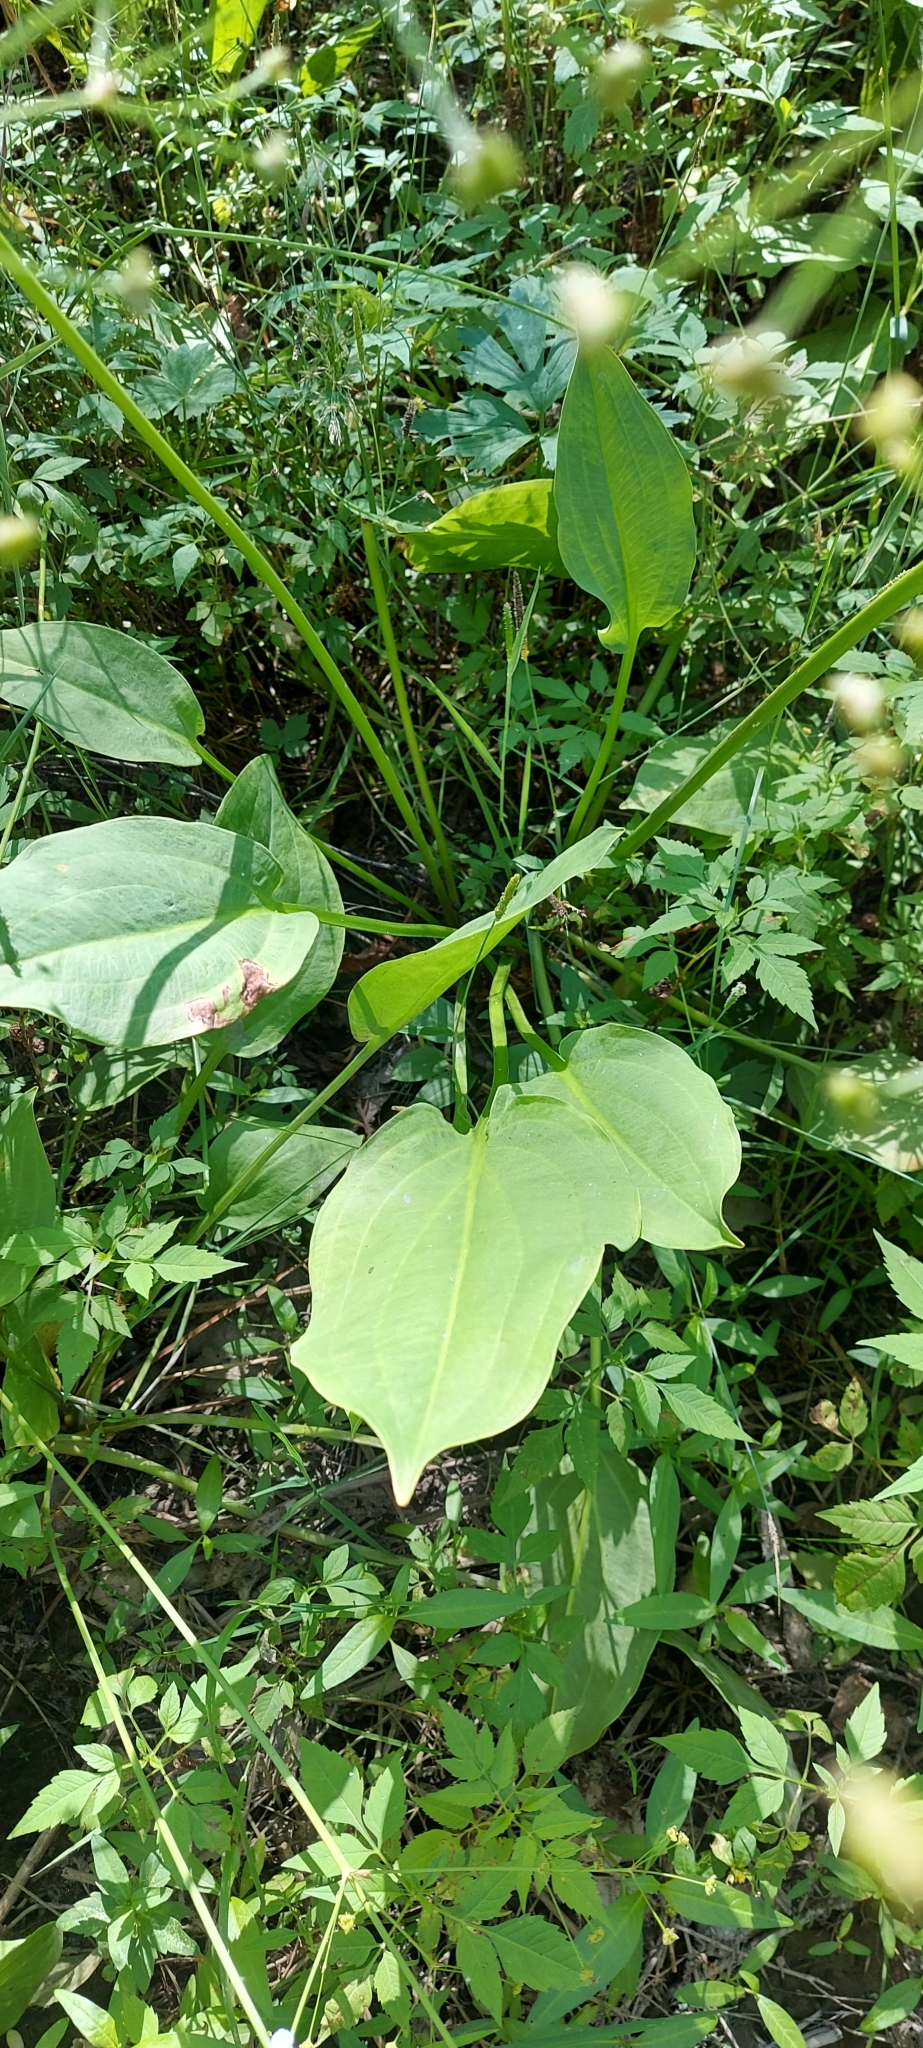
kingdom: Plantae
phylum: Tracheophyta
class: Liliopsida
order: Alismatales
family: Alismataceae
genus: Alisma
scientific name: Alisma plantago-aquatica
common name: Water-plantain
